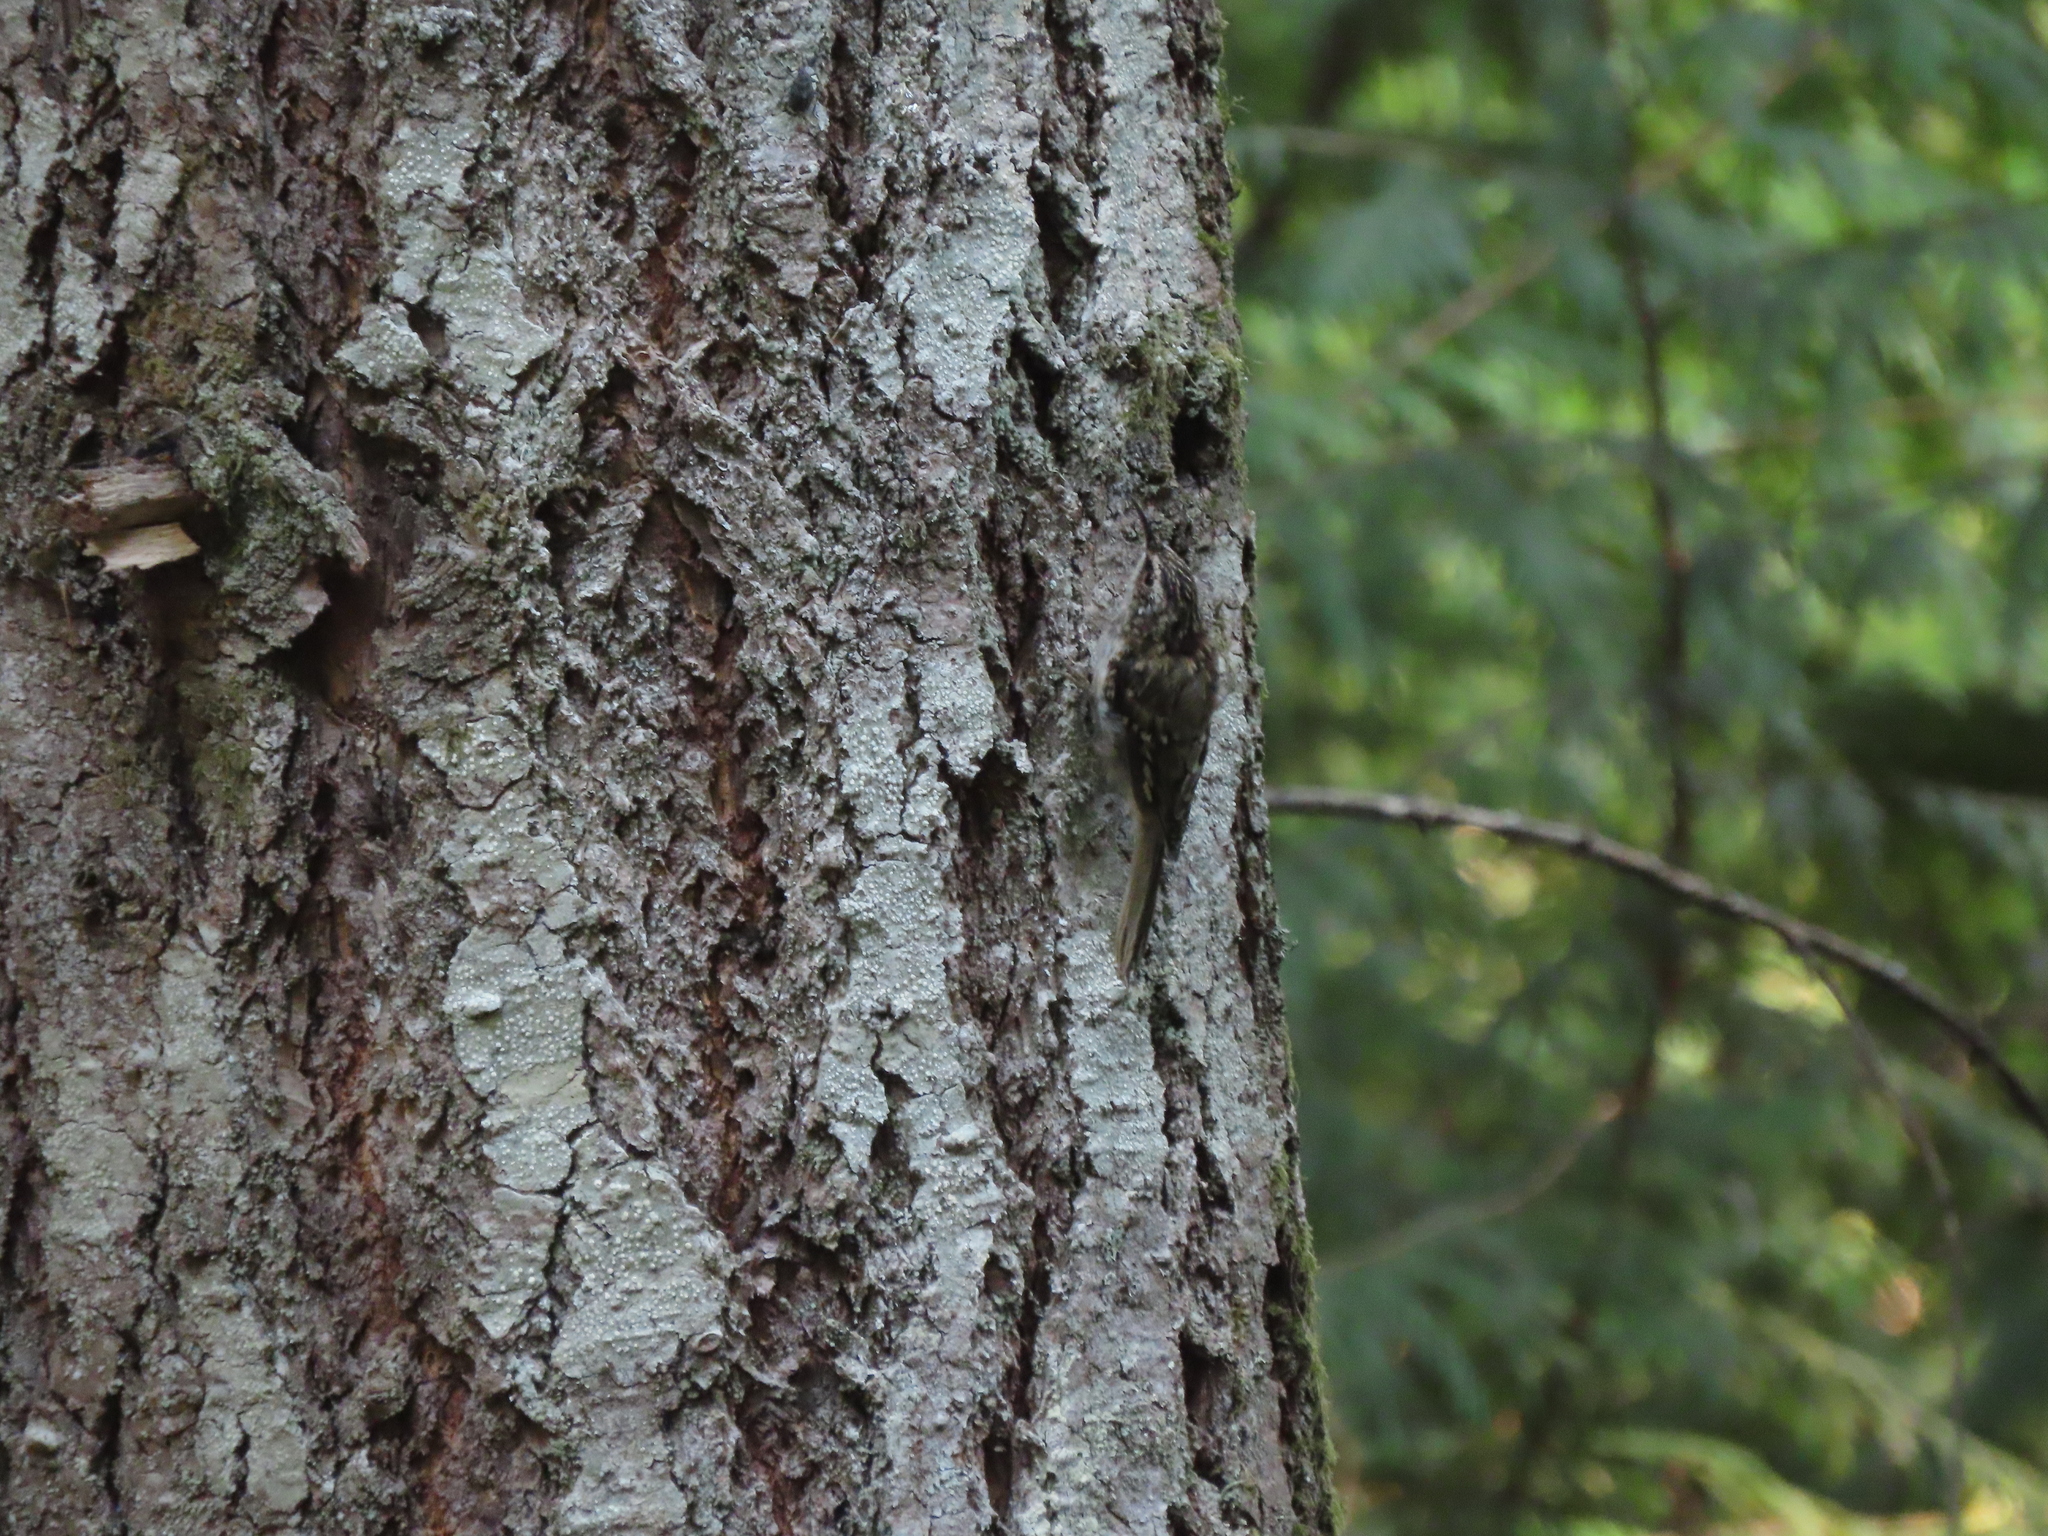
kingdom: Animalia
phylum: Chordata
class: Aves
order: Passeriformes
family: Certhiidae
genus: Certhia
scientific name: Certhia americana
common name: Brown creeper
